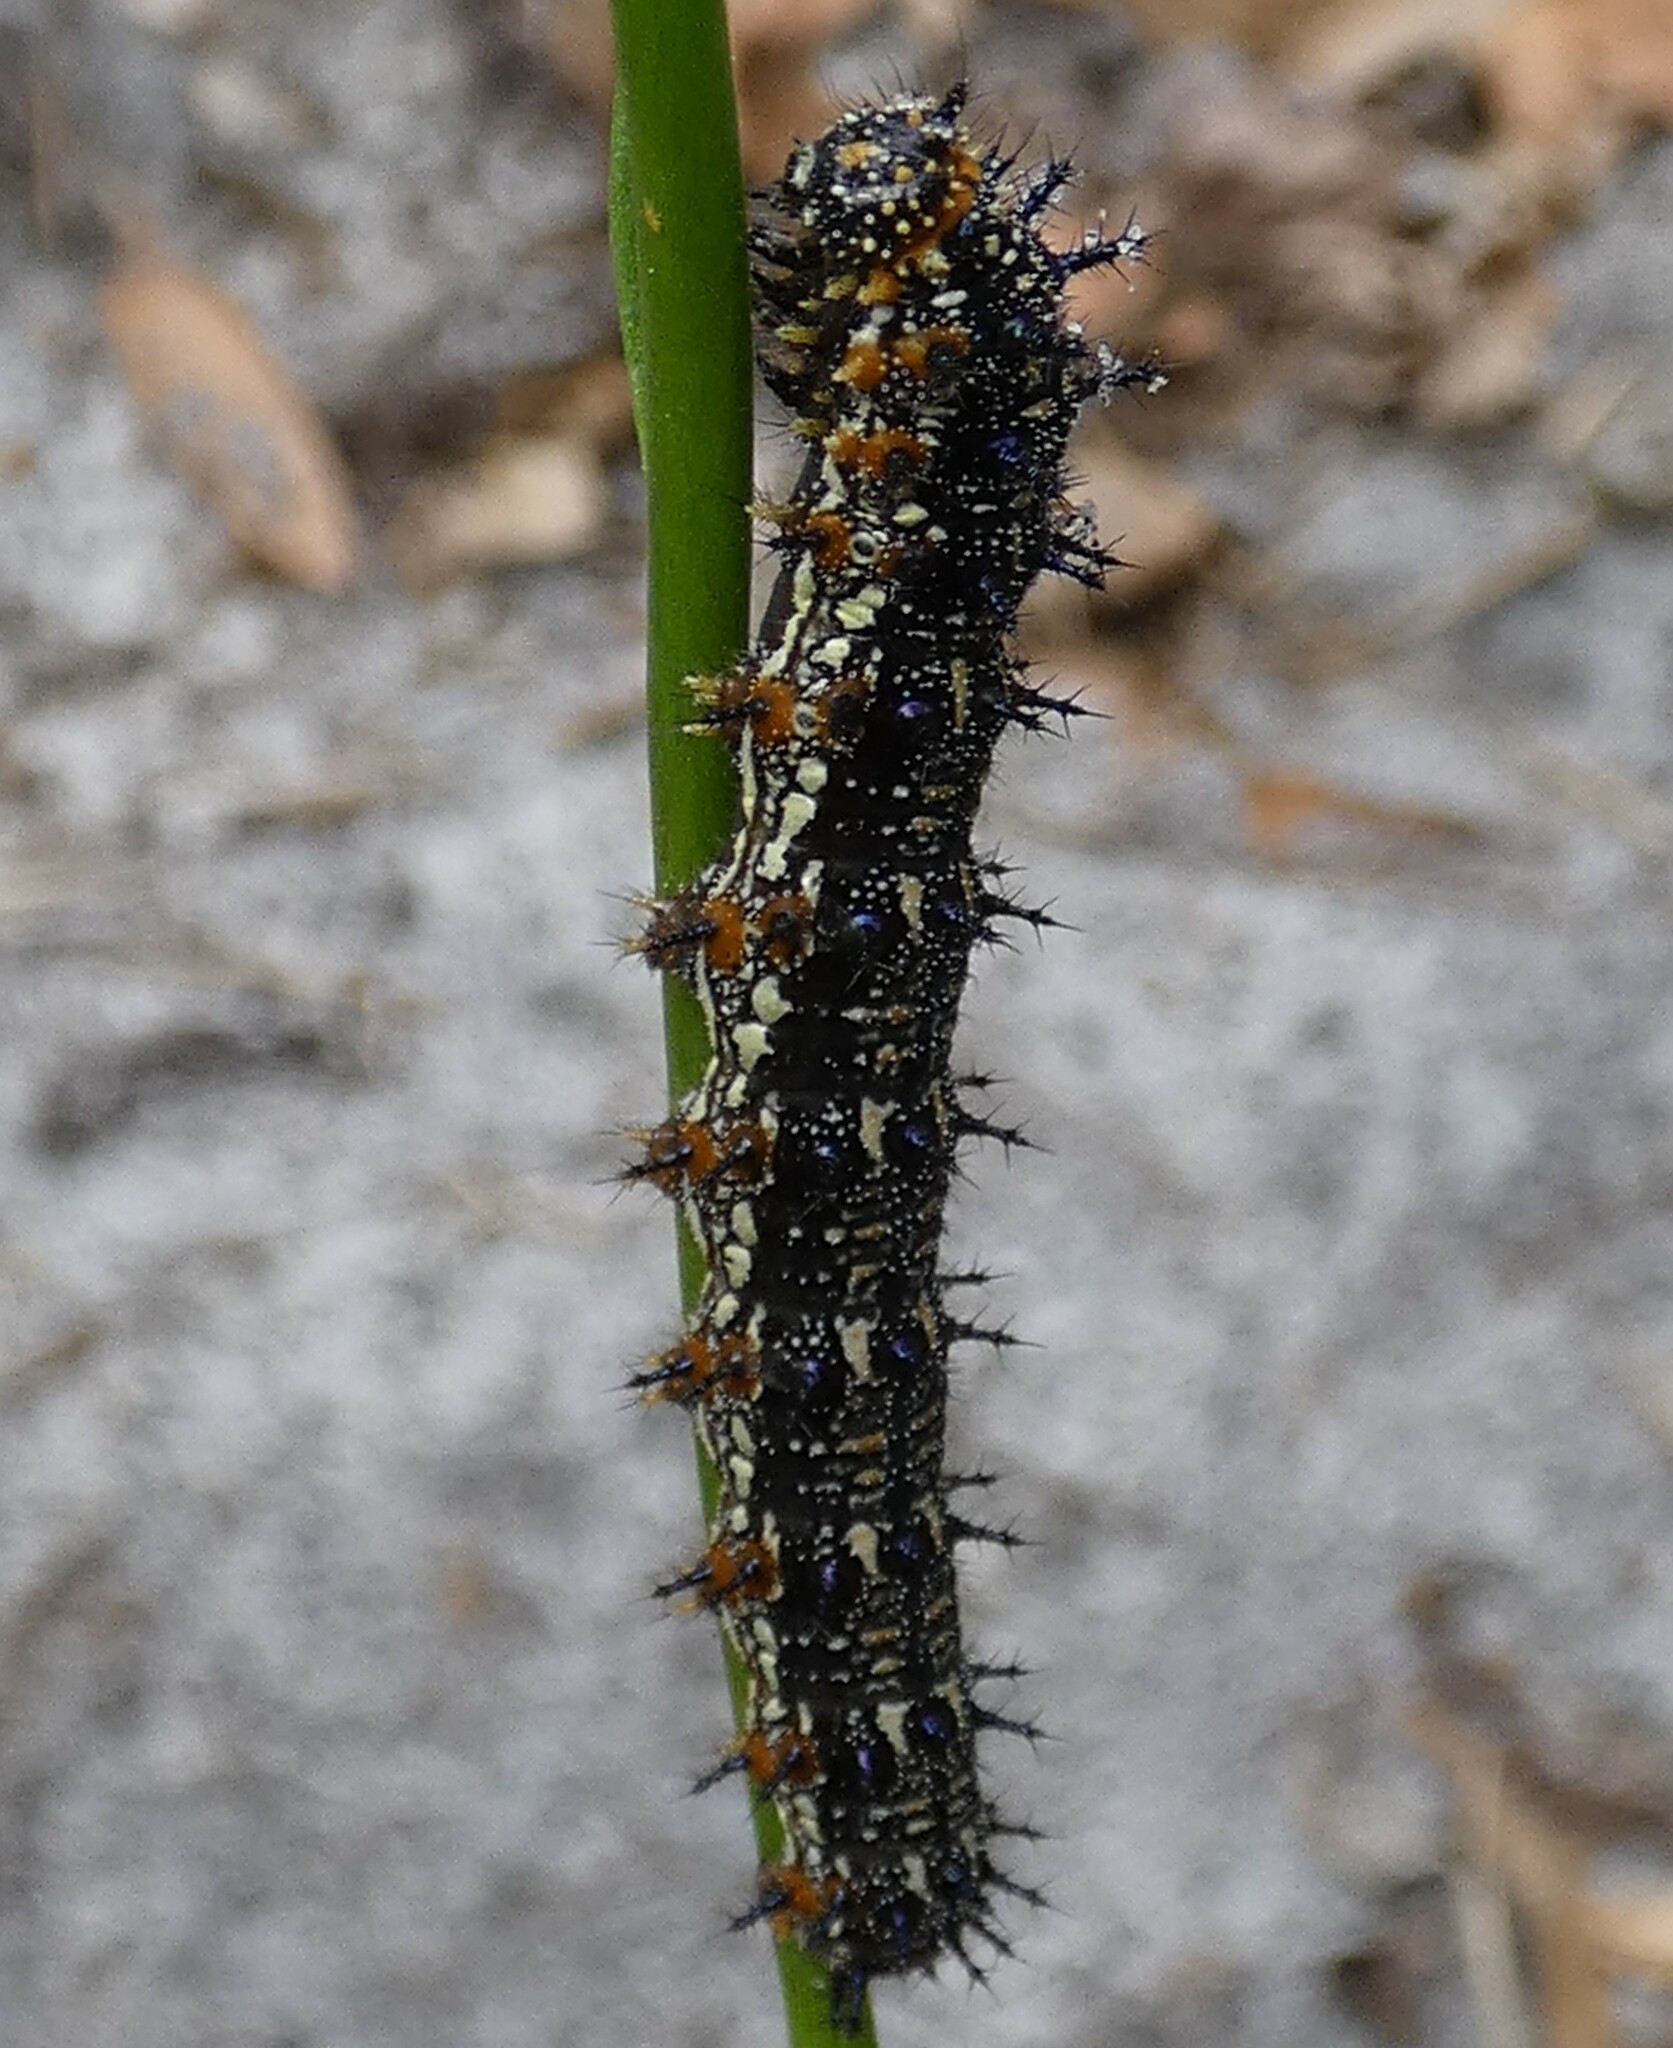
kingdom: Animalia
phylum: Arthropoda
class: Insecta
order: Lepidoptera
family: Nymphalidae
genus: Junonia
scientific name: Junonia coenia
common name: Common buckeye
